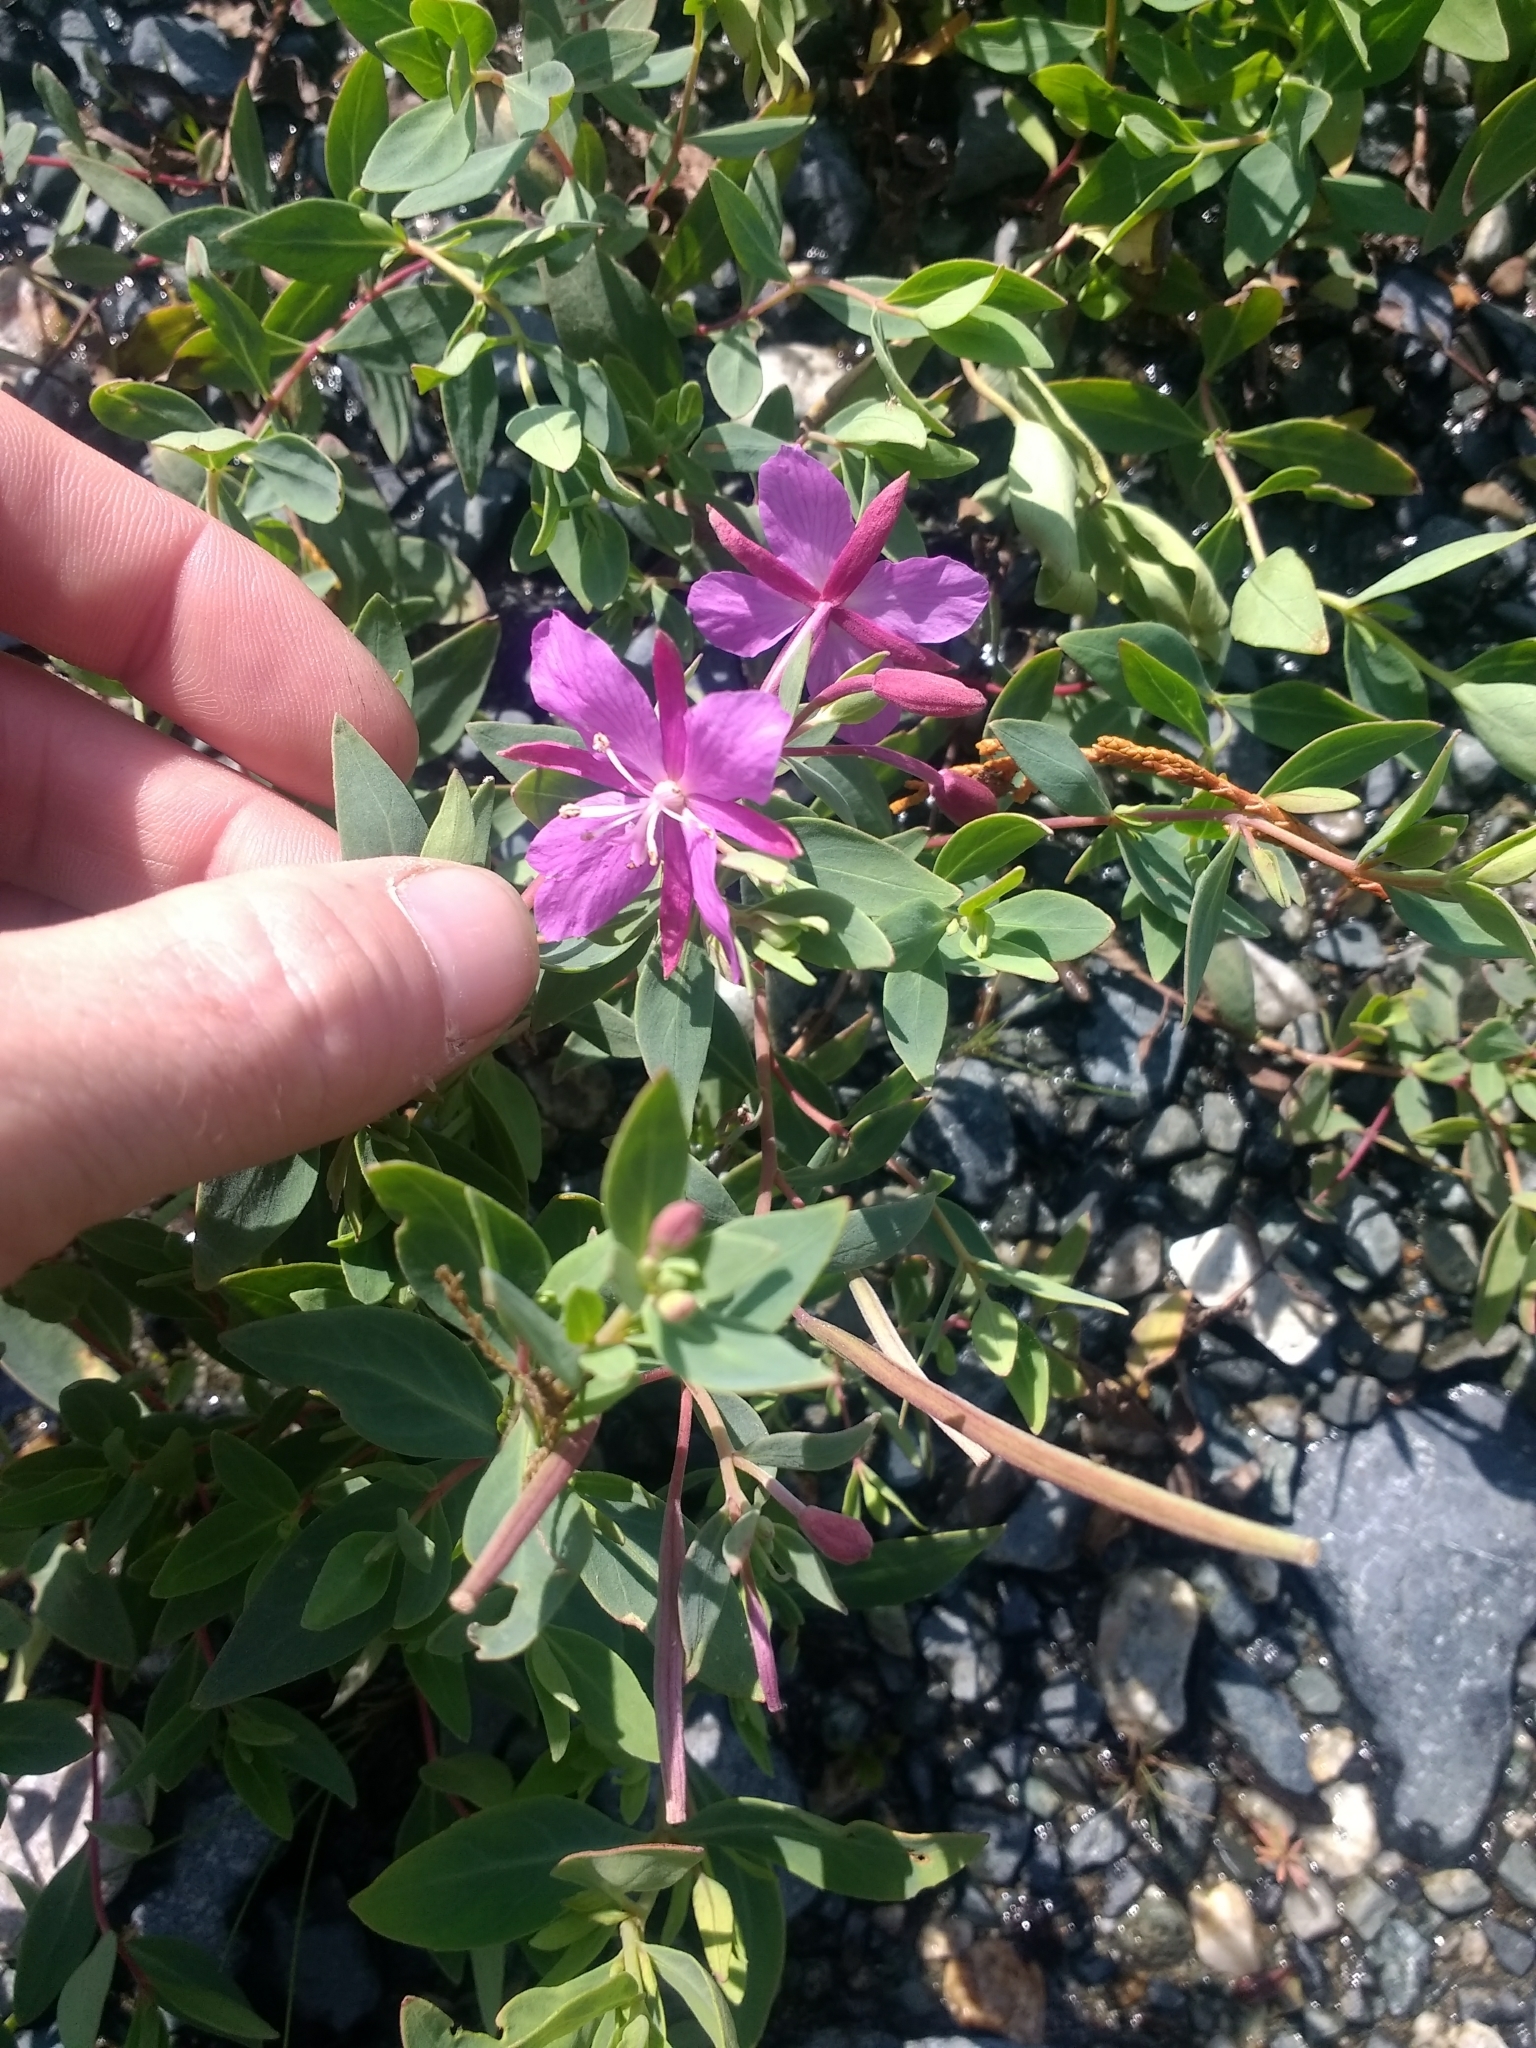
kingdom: Plantae
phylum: Tracheophyta
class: Magnoliopsida
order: Myrtales
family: Onagraceae
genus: Chamaenerion
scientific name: Chamaenerion latifolium
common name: Dwarf fireweed
